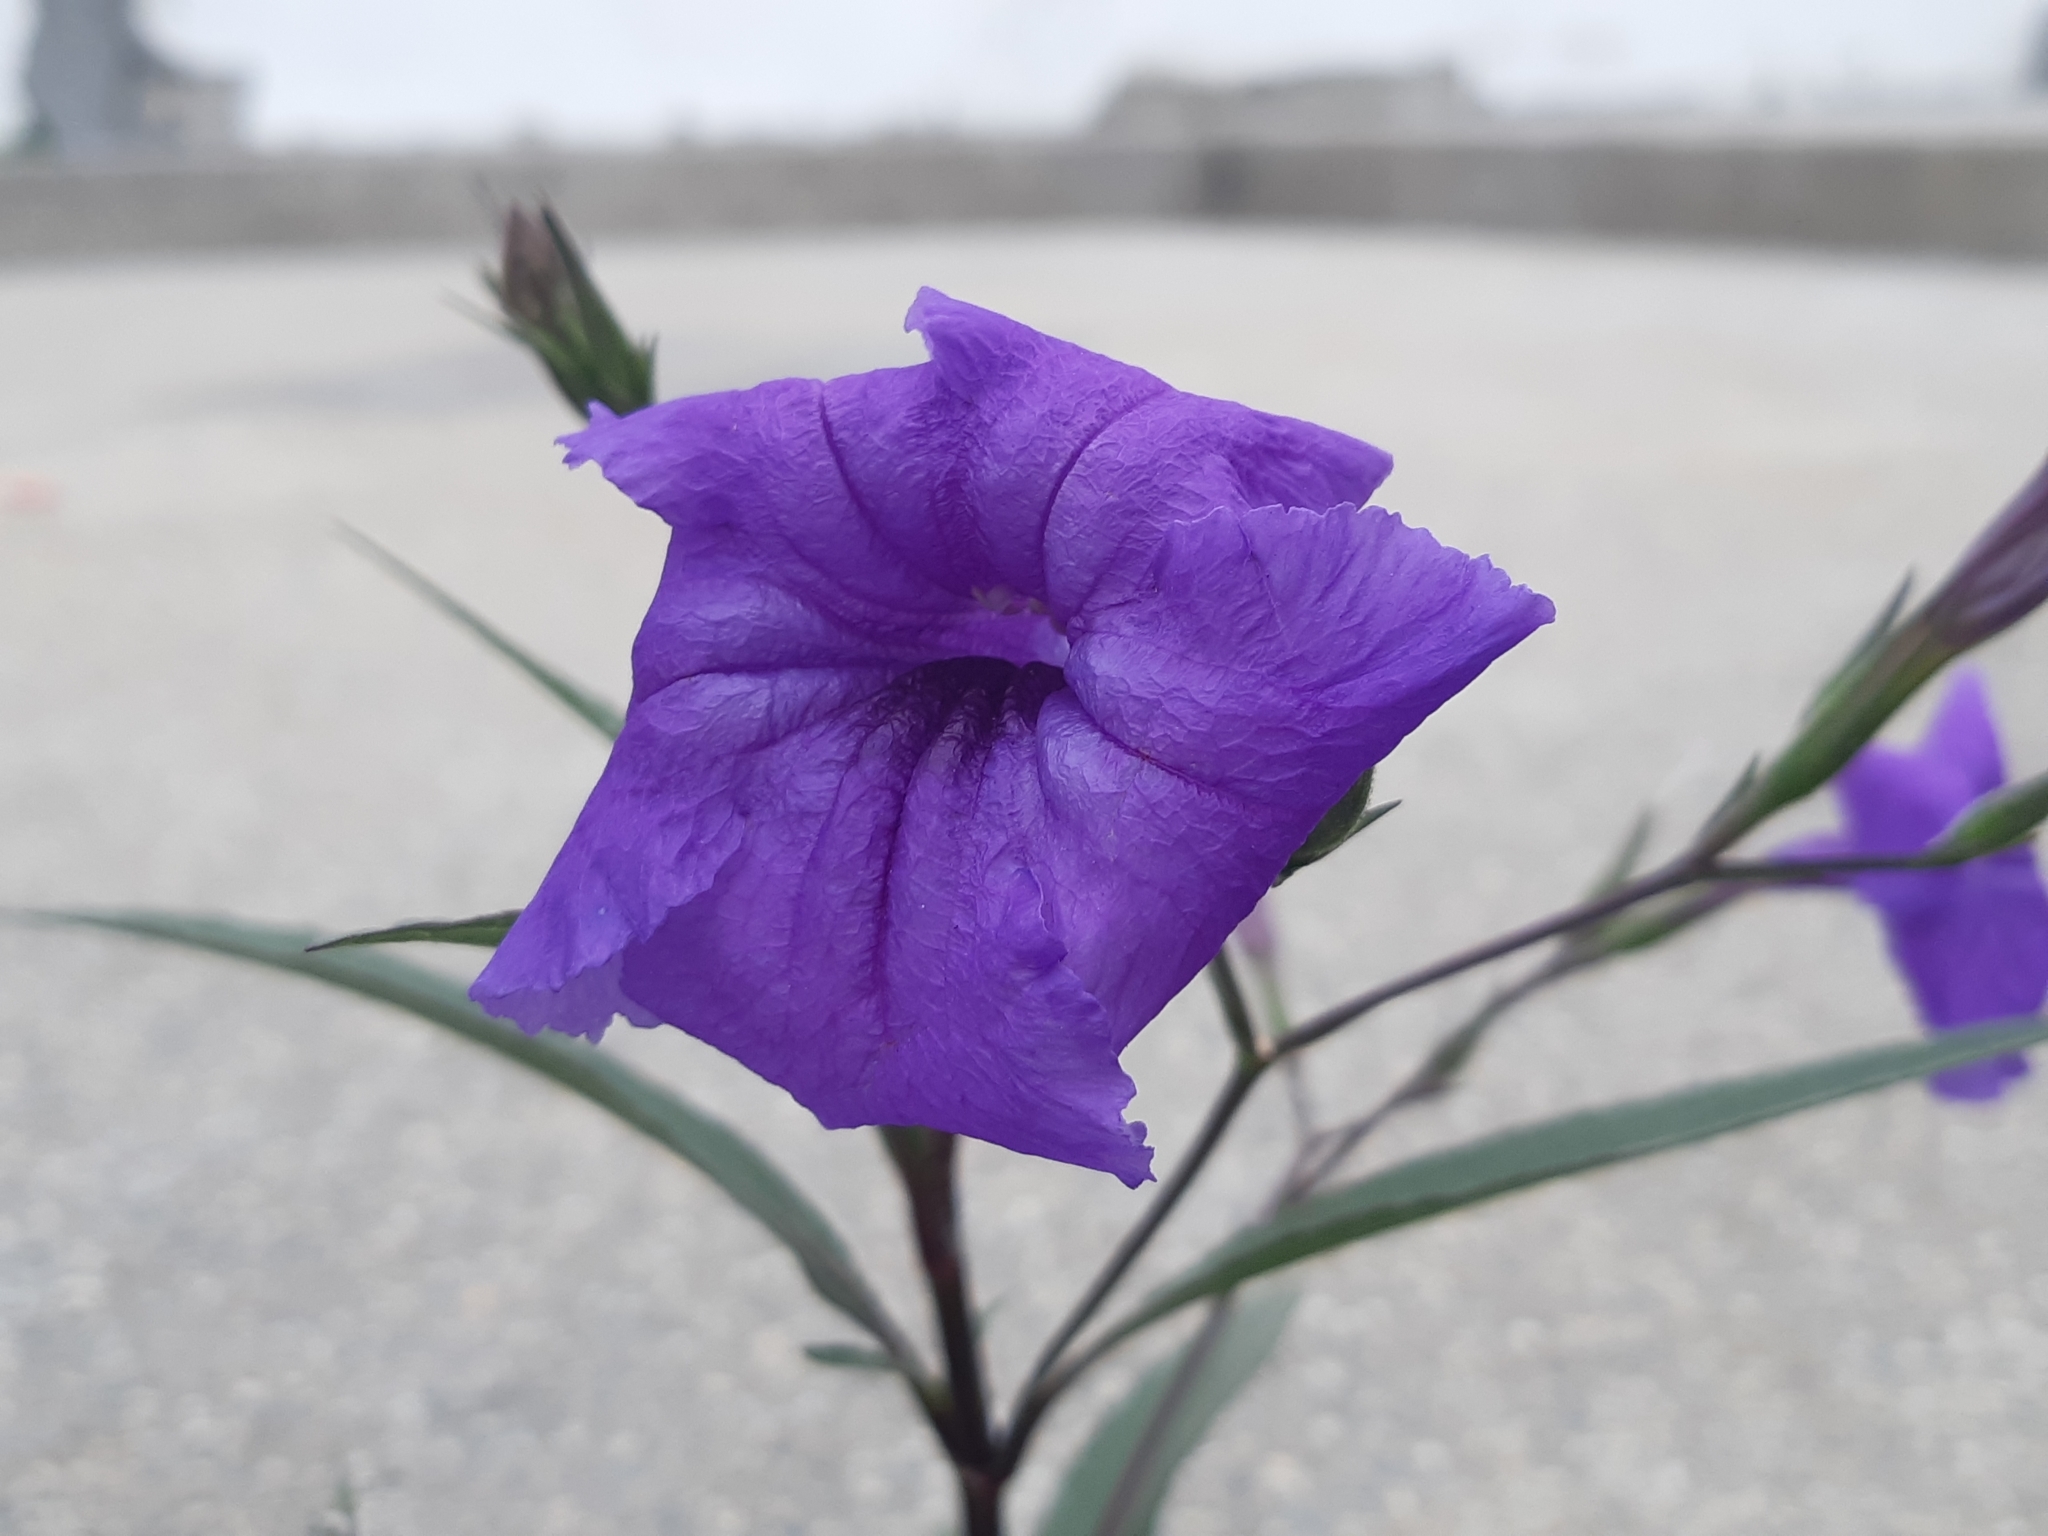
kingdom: Plantae
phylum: Tracheophyta
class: Magnoliopsida
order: Lamiales
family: Acanthaceae
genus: Ruellia
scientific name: Ruellia simplex
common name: Softseed wild petunia
